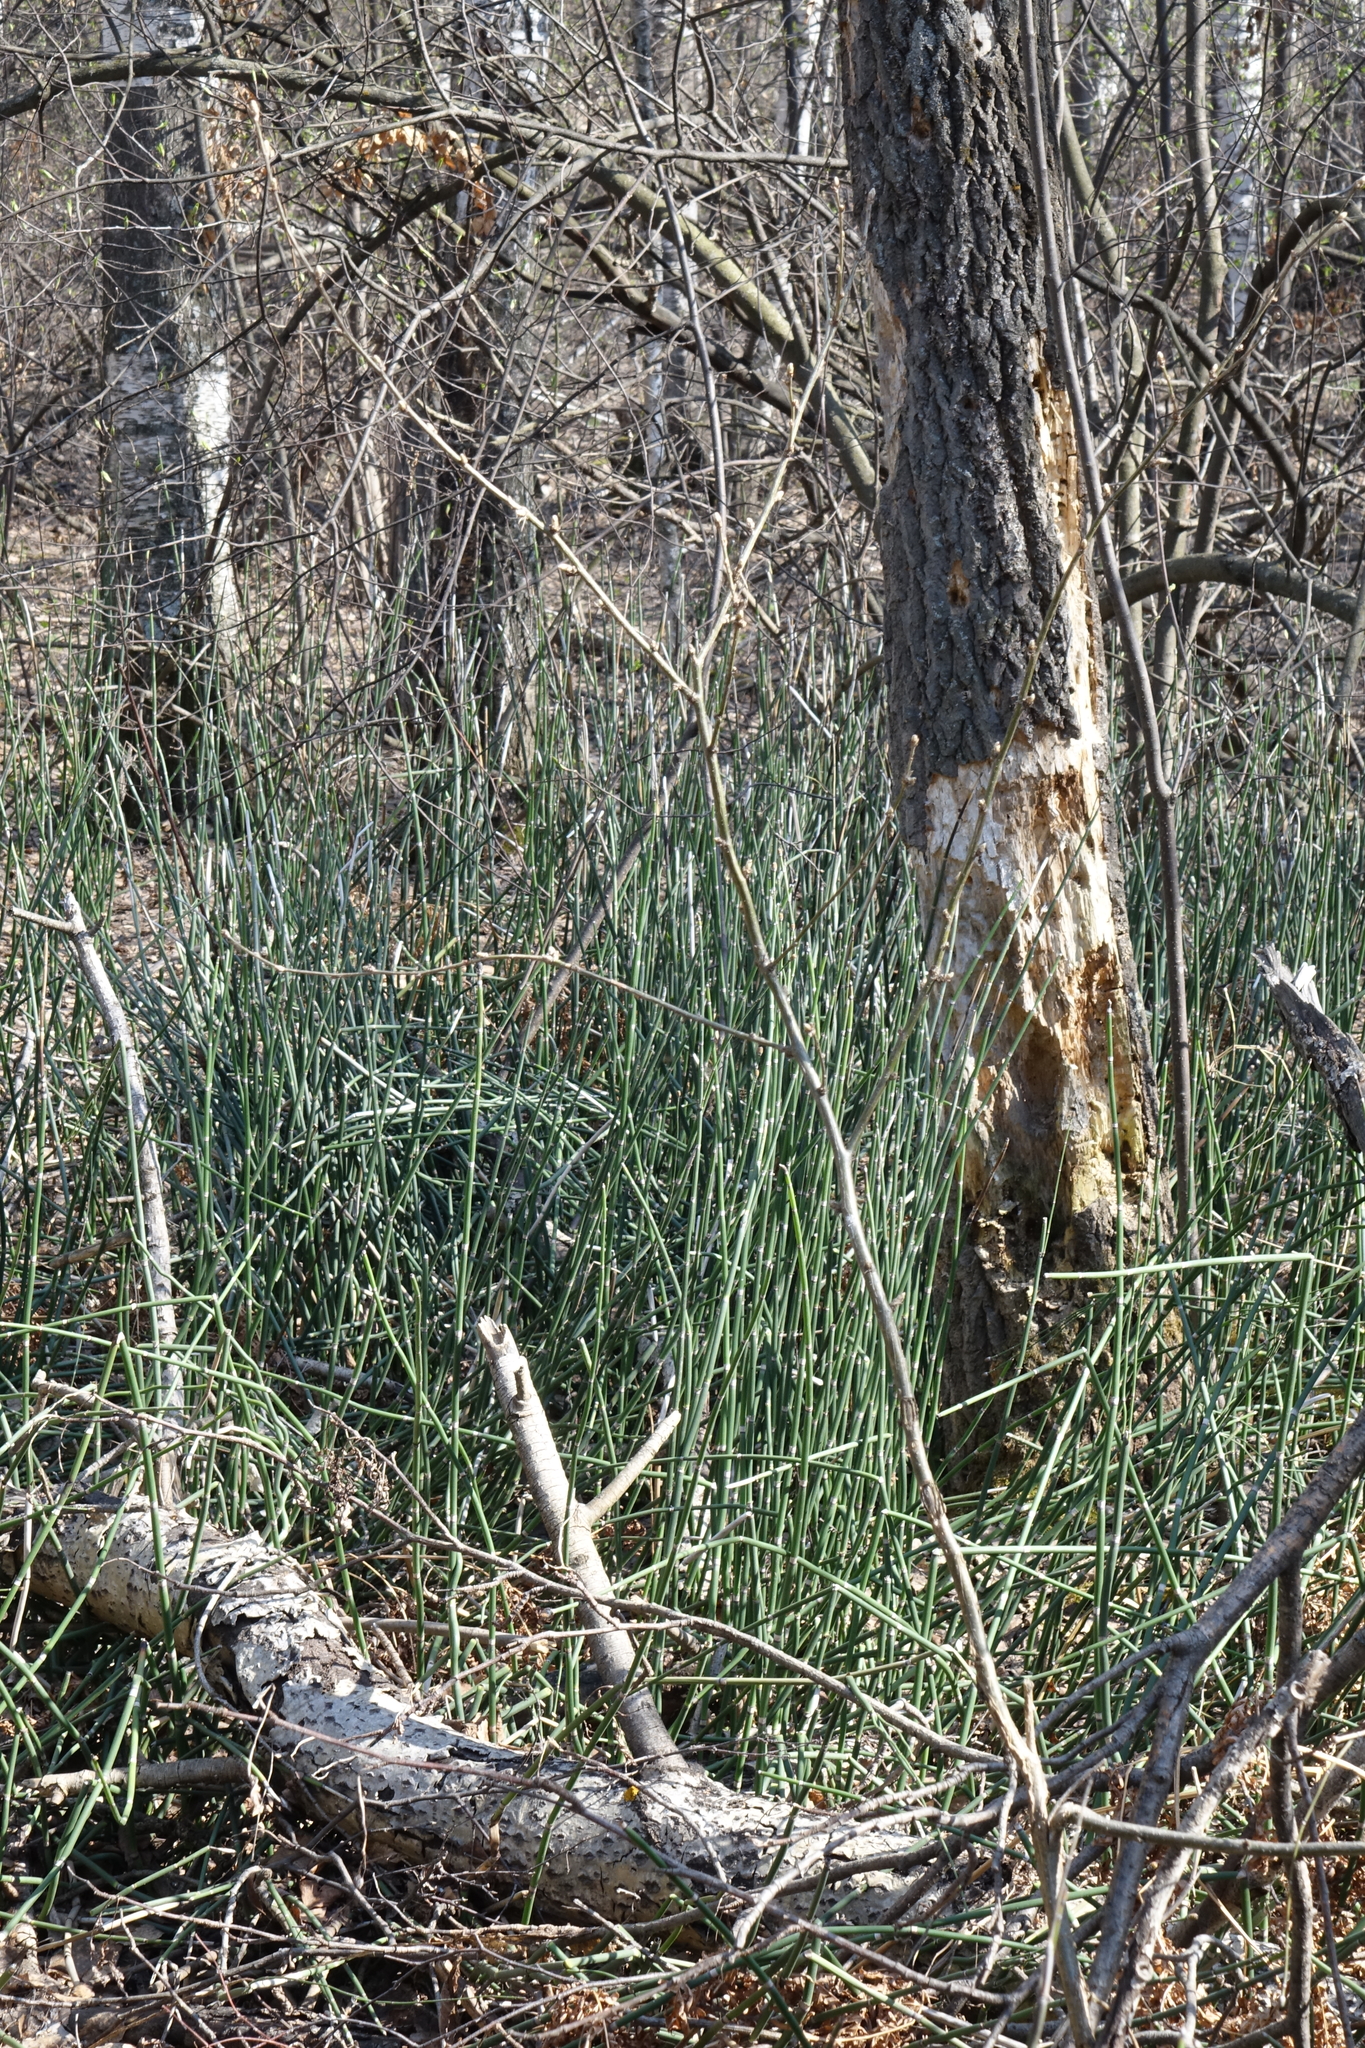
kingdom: Plantae
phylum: Tracheophyta
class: Polypodiopsida
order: Equisetales
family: Equisetaceae
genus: Equisetum
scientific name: Equisetum hyemale
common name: Rough horsetail
